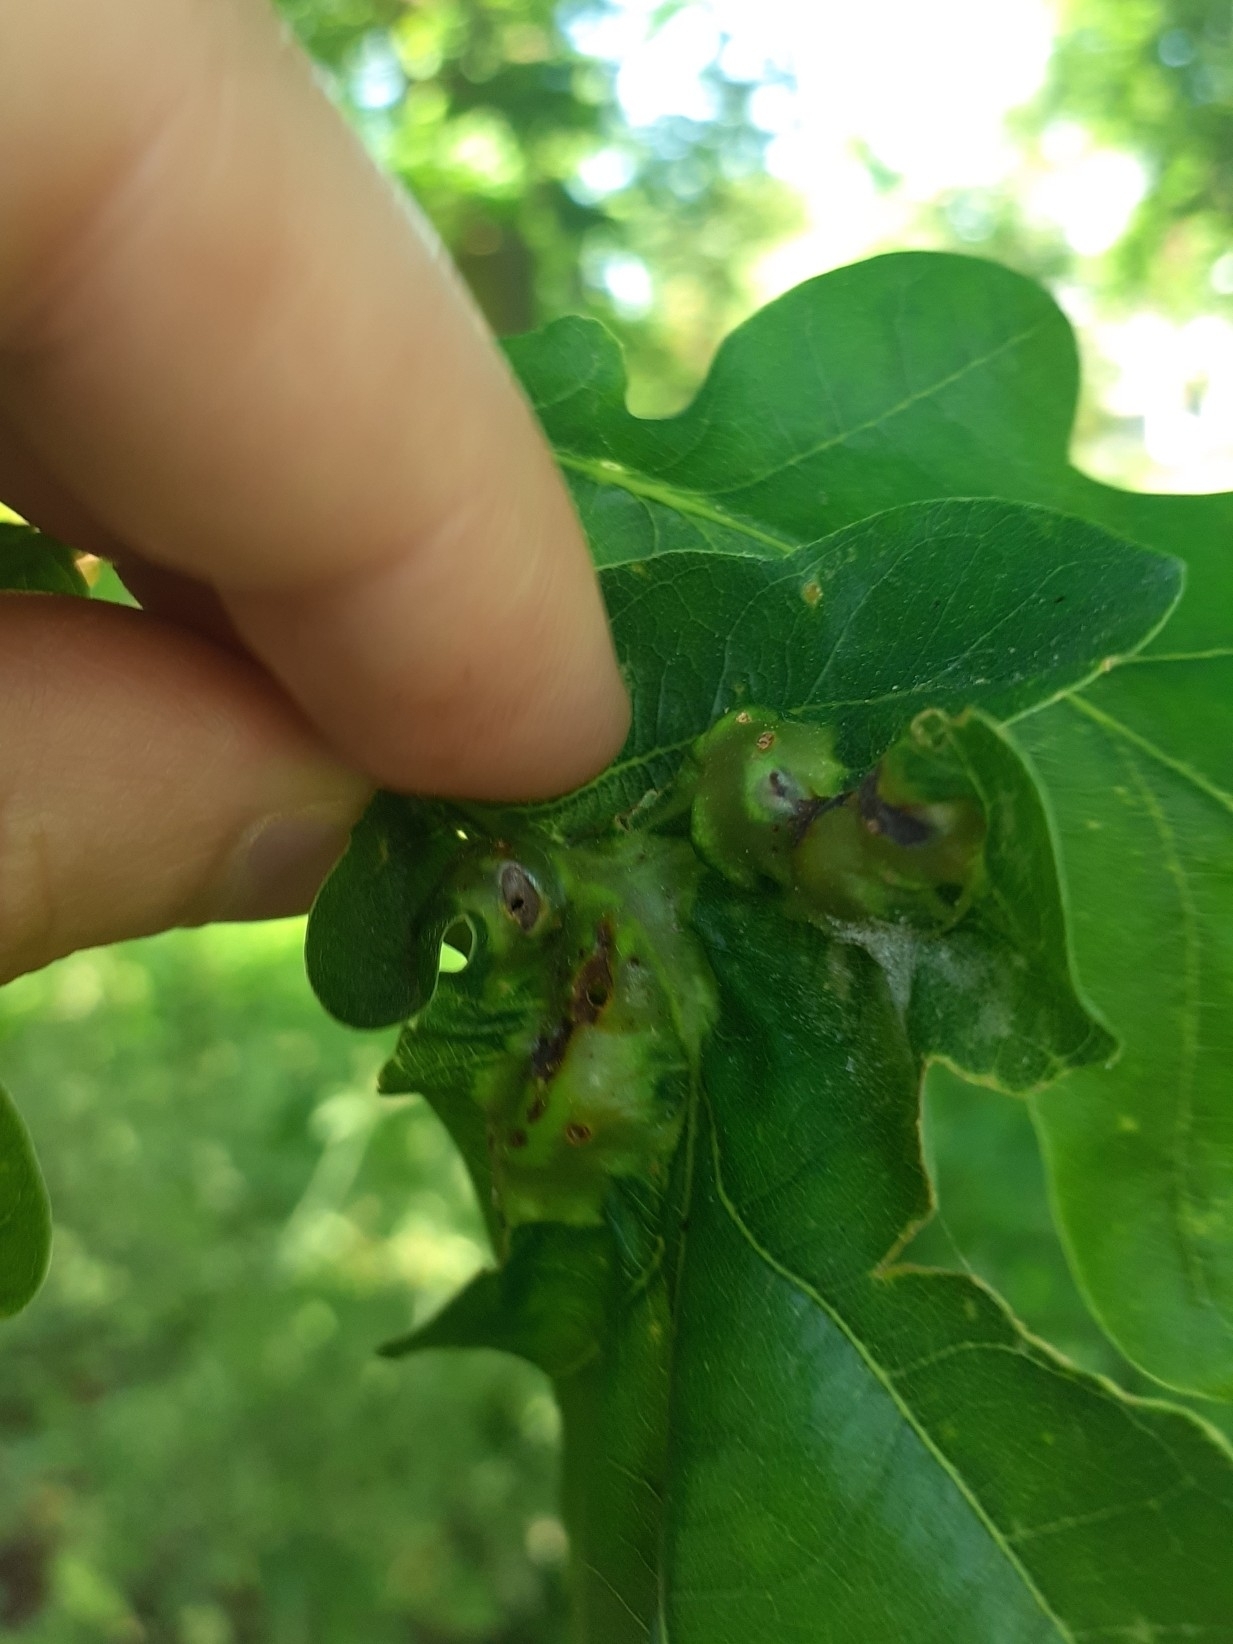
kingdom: Animalia
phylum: Arthropoda
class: Insecta
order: Hymenoptera
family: Cynipidae
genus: Andricus
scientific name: Andricus curvator
